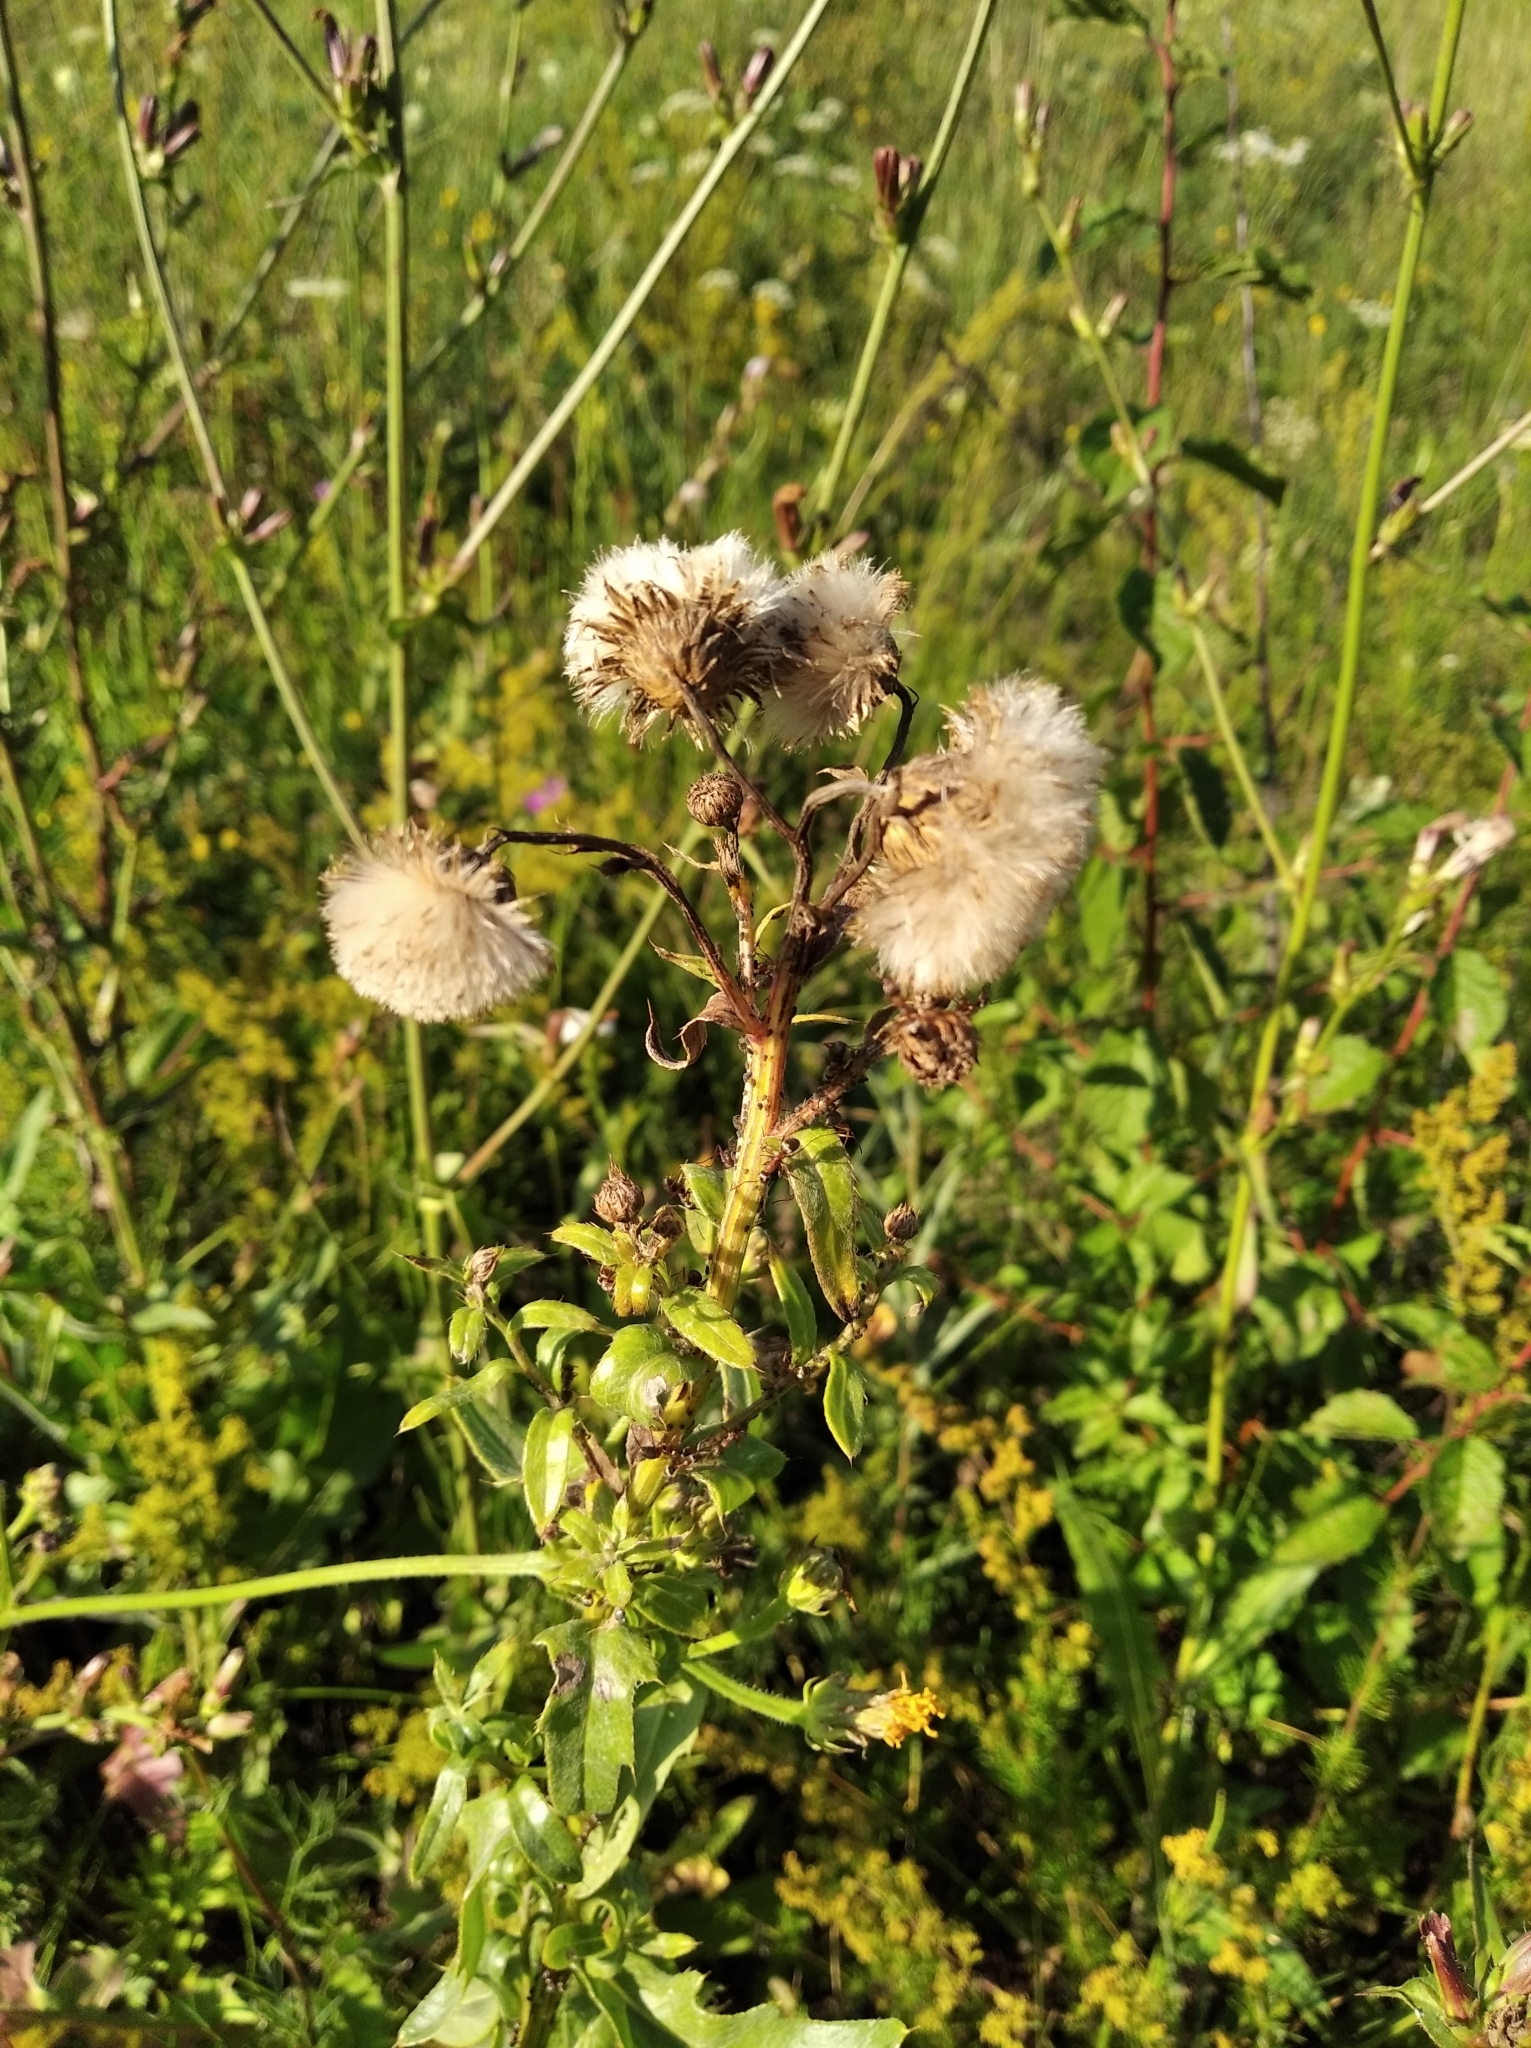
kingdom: Plantae
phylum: Tracheophyta
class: Magnoliopsida
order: Asterales
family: Asteraceae
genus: Cirsium
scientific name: Cirsium arvense
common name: Creeping thistle
